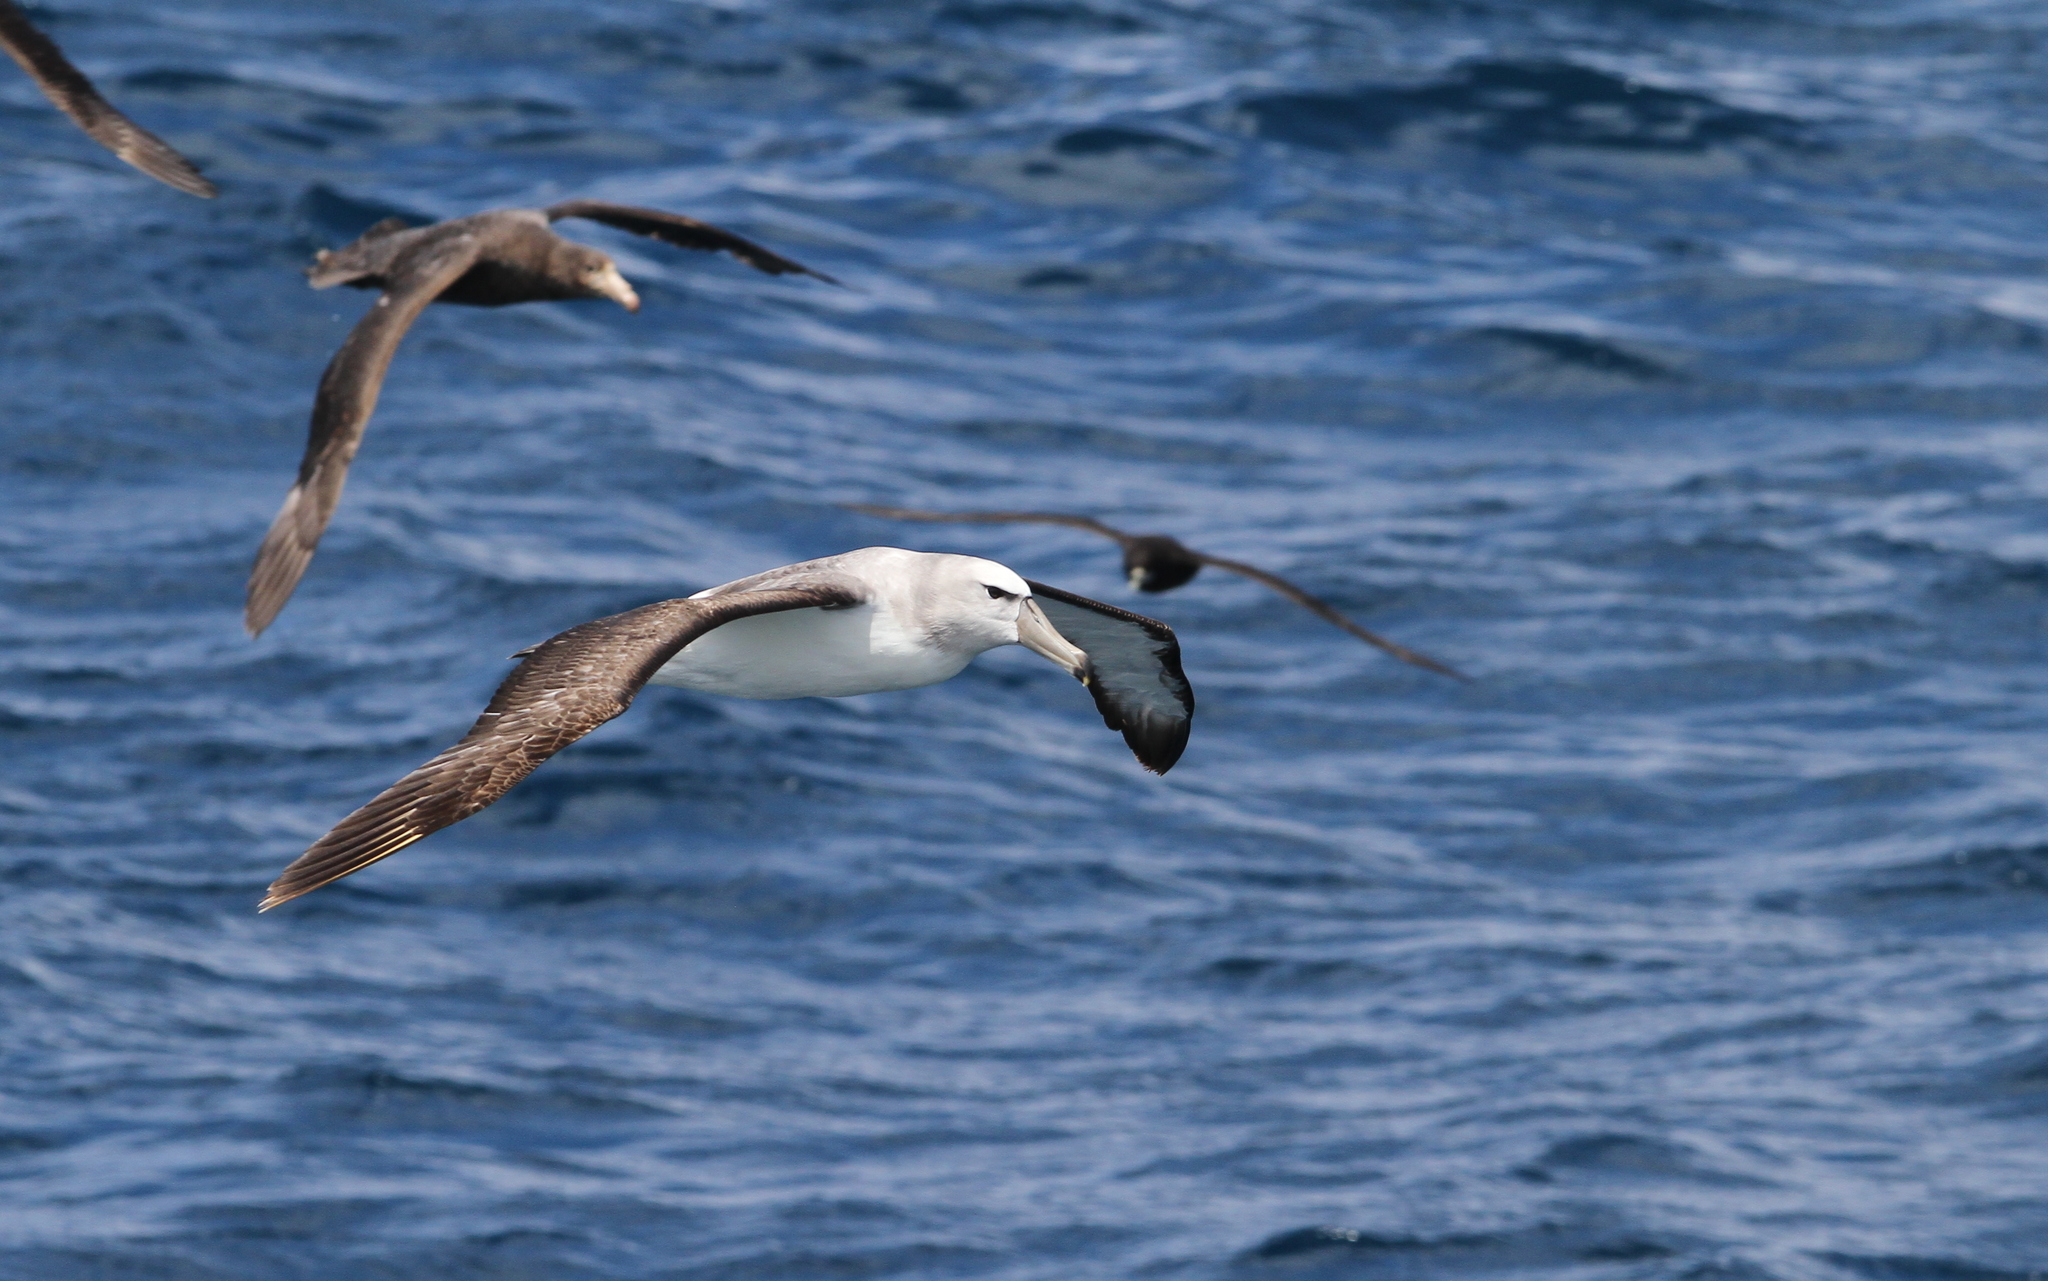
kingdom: Animalia
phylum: Chordata
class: Aves
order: Procellariiformes
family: Diomedeidae
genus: Thalassarche
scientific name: Thalassarche cauta
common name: Shy albatross
